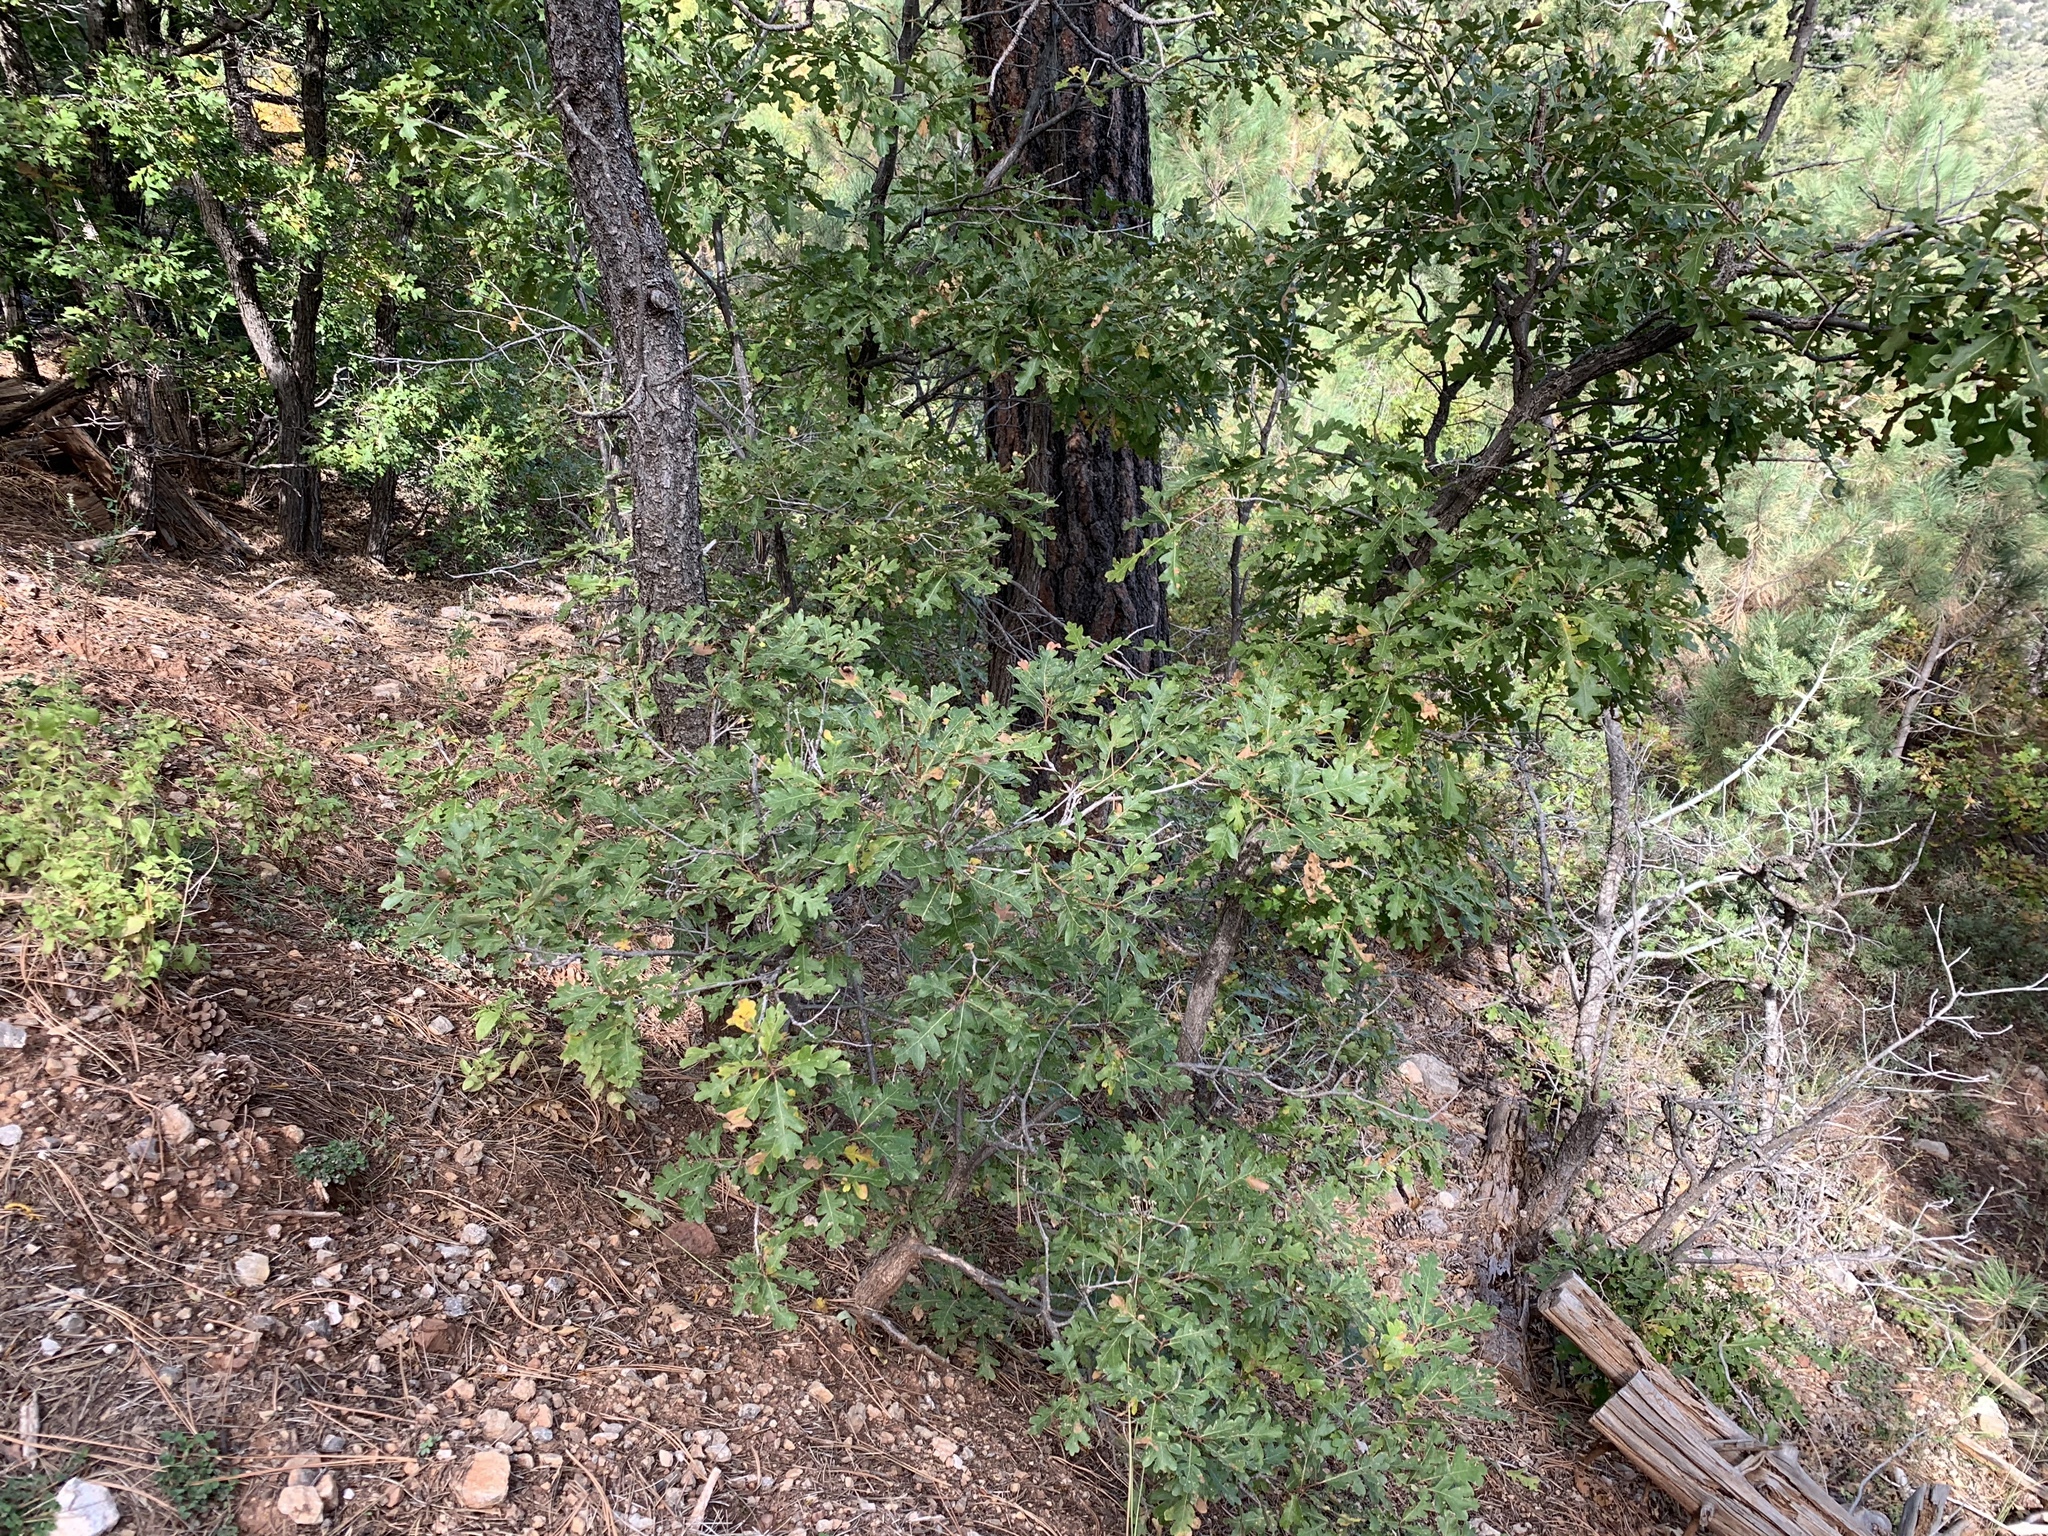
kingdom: Plantae
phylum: Tracheophyta
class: Magnoliopsida
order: Fagales
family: Fagaceae
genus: Quercus
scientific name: Quercus gambelii
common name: Gambel oak
